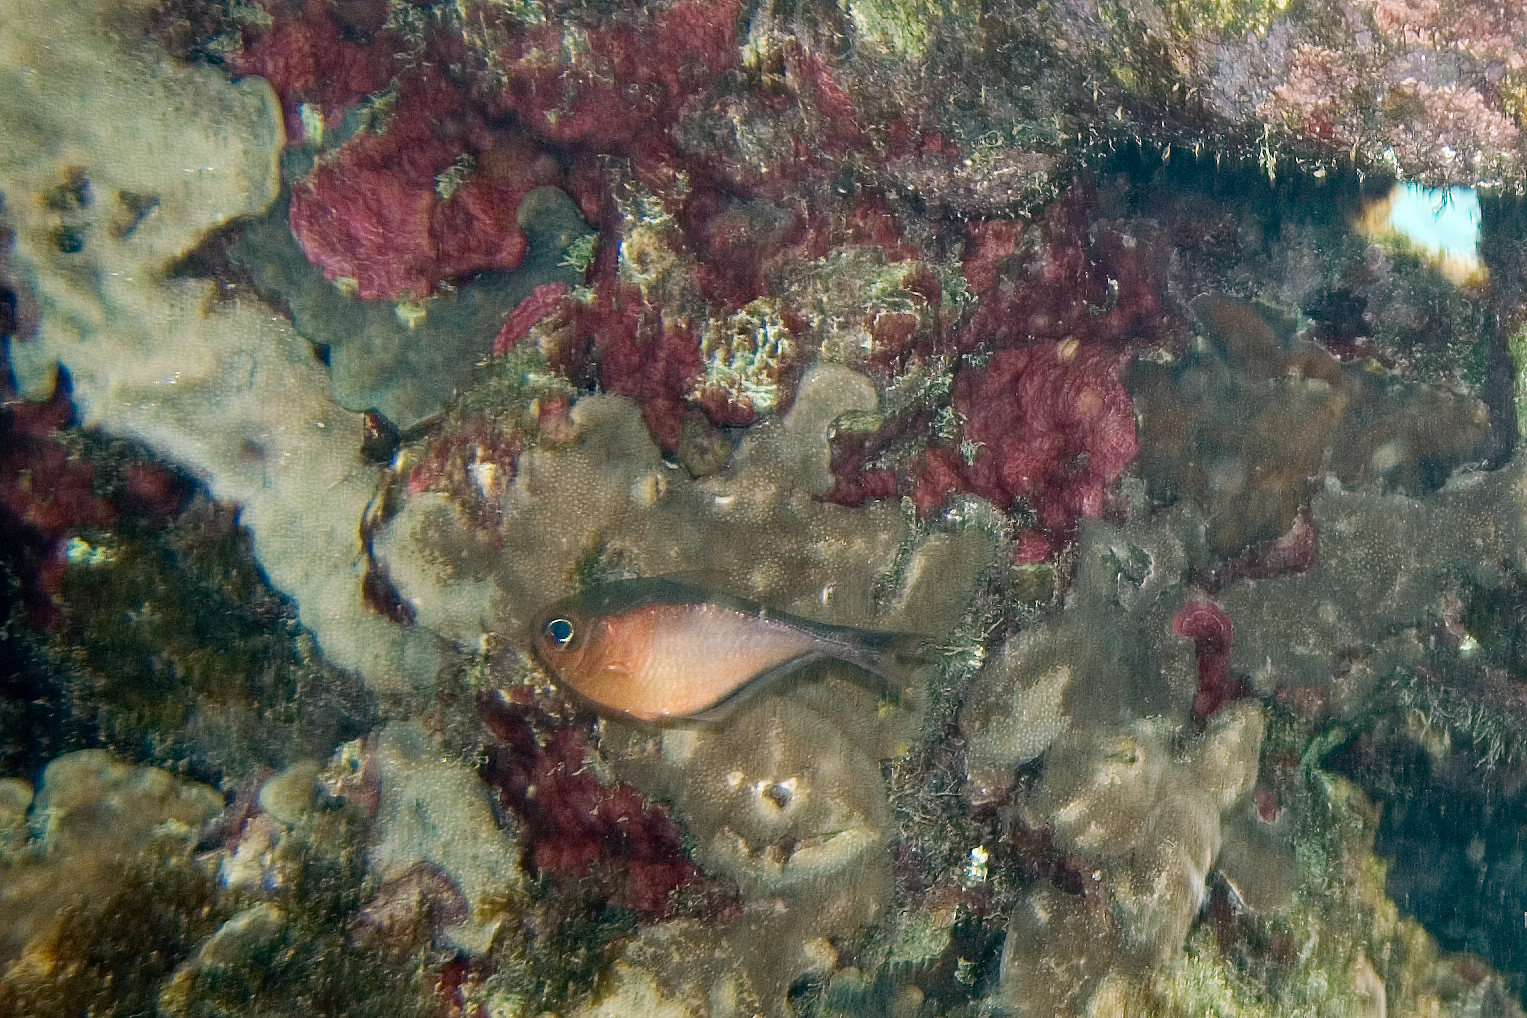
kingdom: Animalia
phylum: Chordata
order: Perciformes
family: Pempheridae
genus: Pempheris
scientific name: Pempheris schomburgkii
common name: Glassy sweeper
